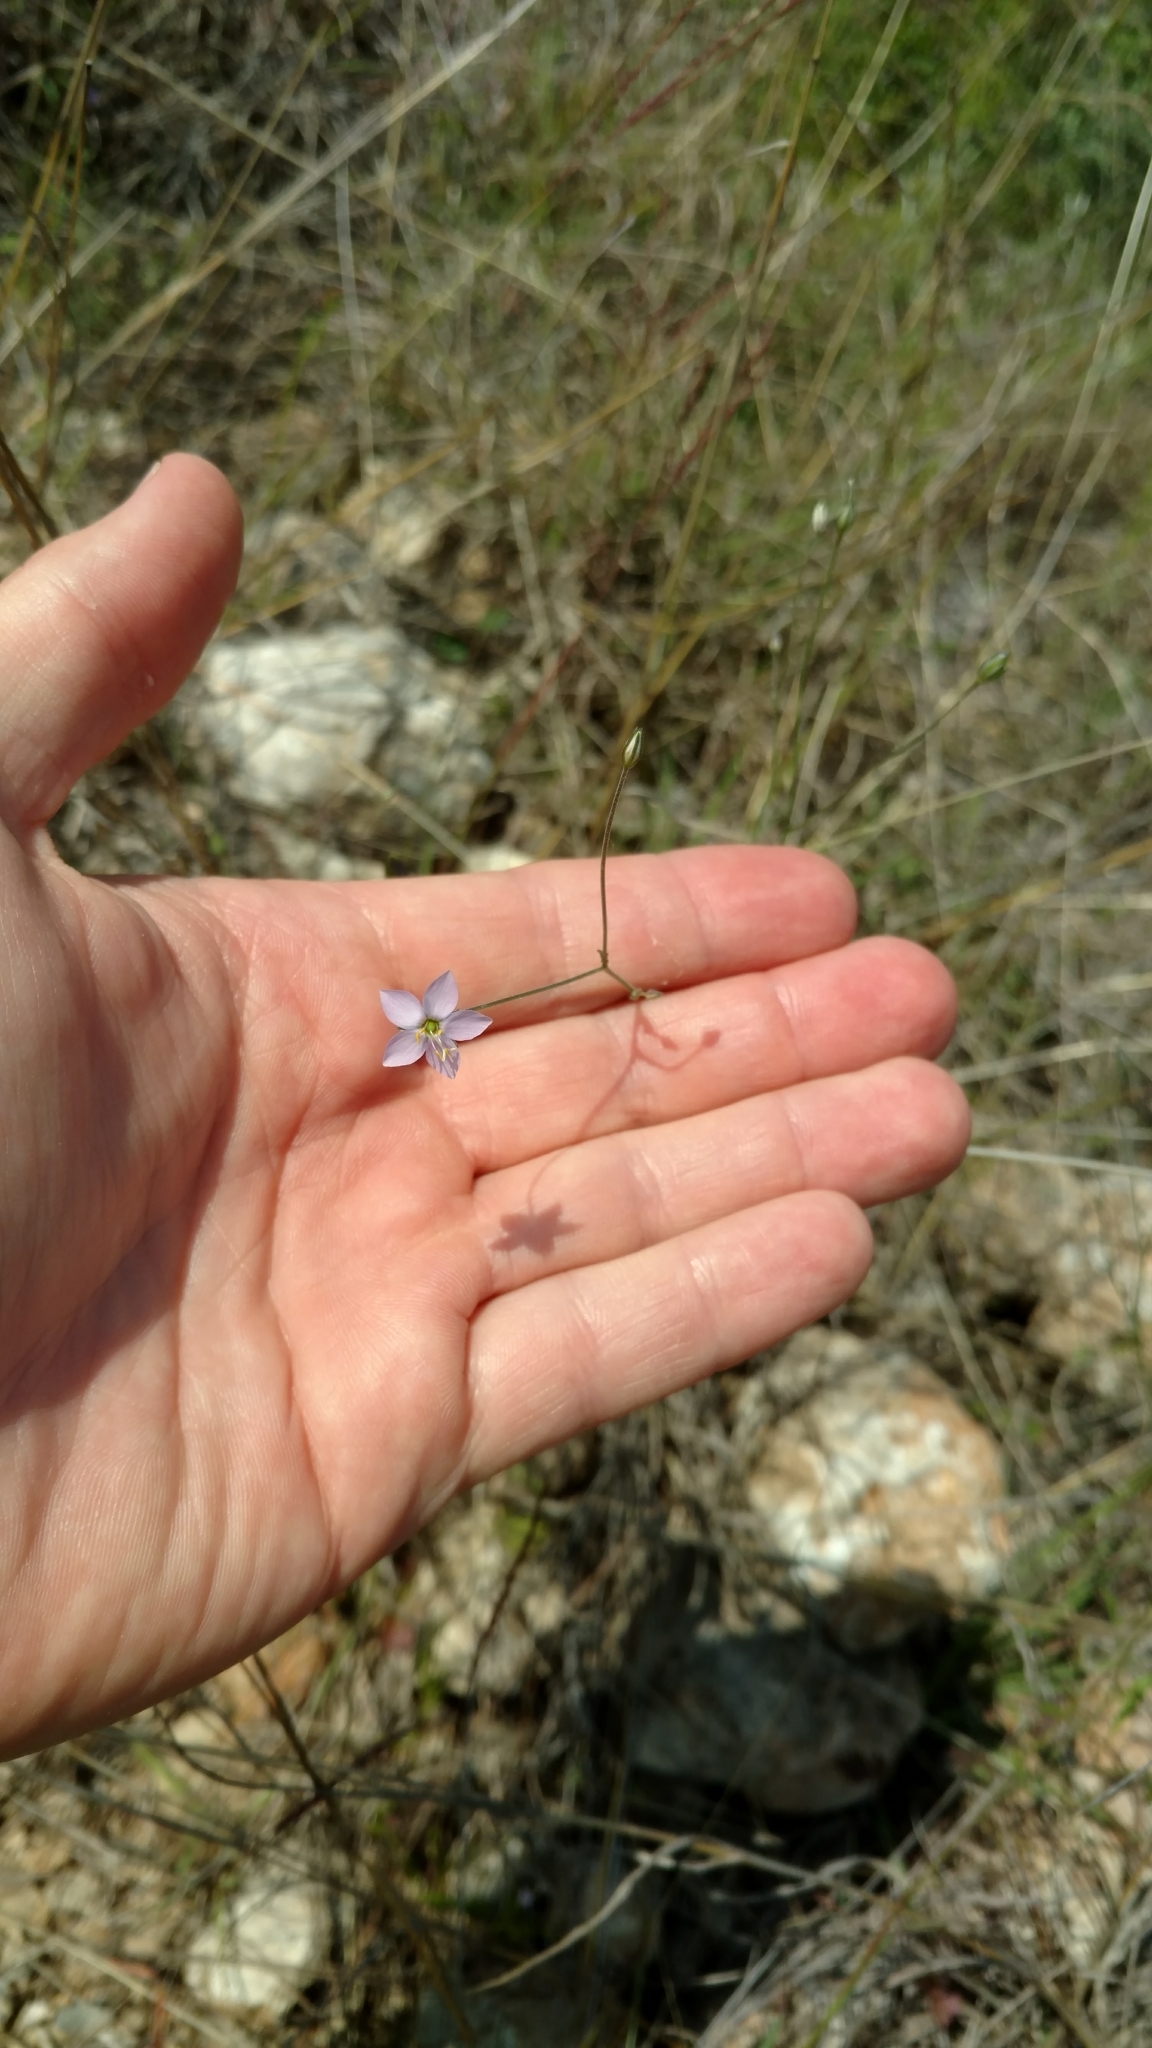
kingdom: Plantae
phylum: Tracheophyta
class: Magnoliopsida
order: Ericales
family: Polemoniaceae
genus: Giliastrum
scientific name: Giliastrum incisum
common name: Splitleaf gilia
